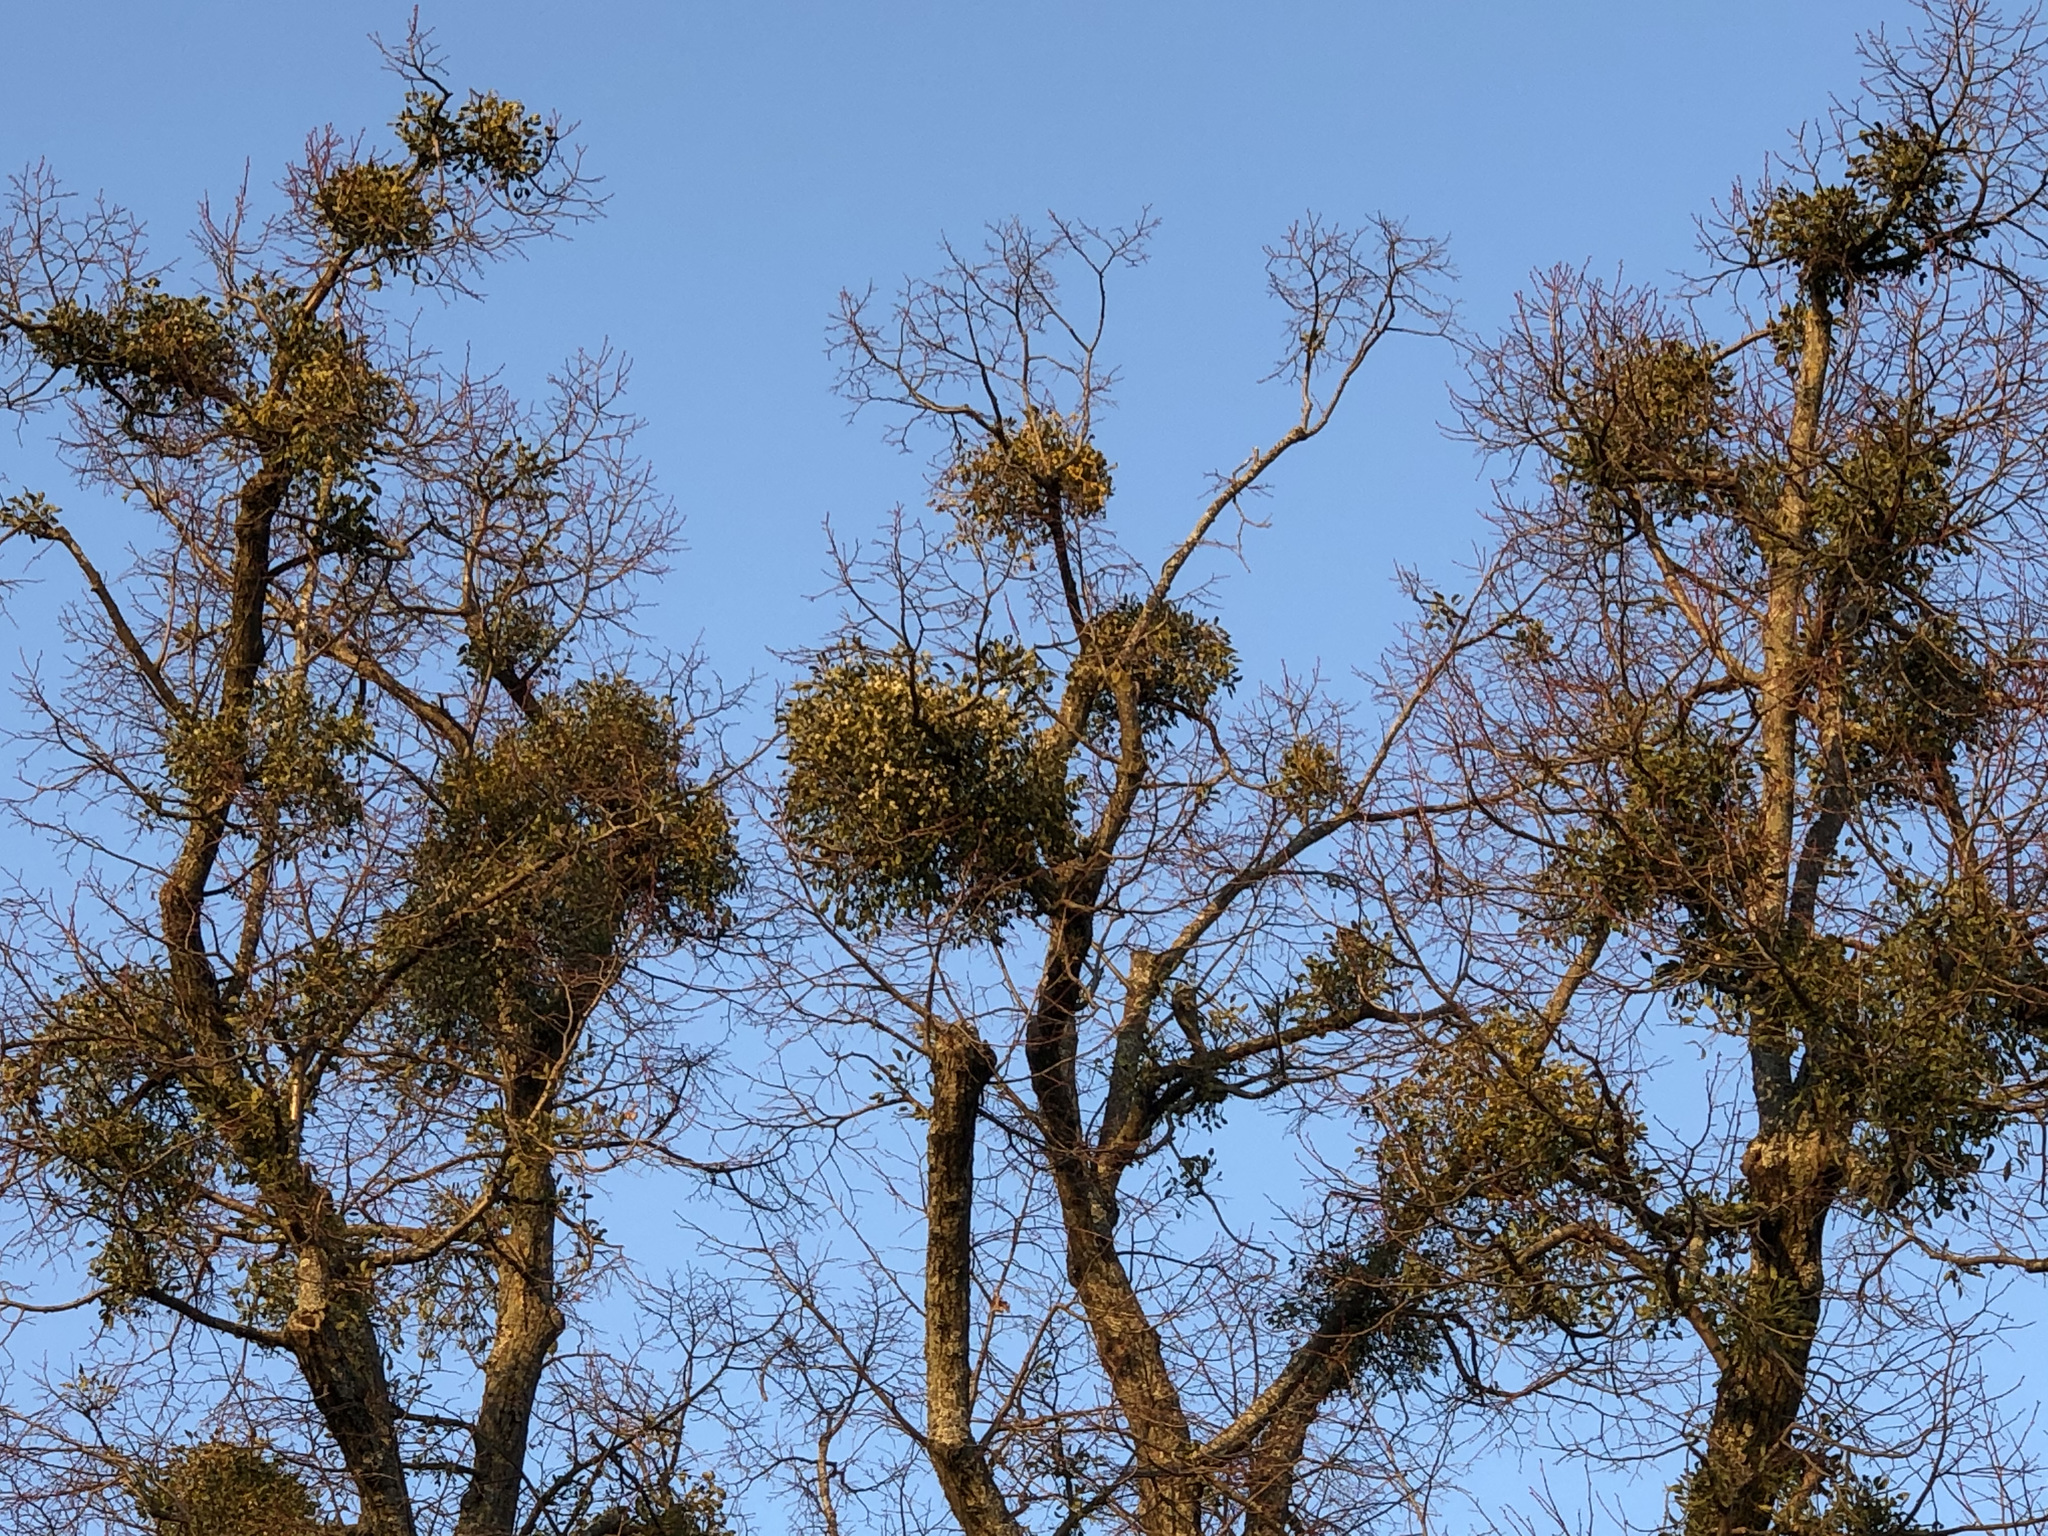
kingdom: Plantae
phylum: Tracheophyta
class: Magnoliopsida
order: Santalales
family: Viscaceae
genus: Viscum
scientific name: Viscum album
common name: Mistletoe
